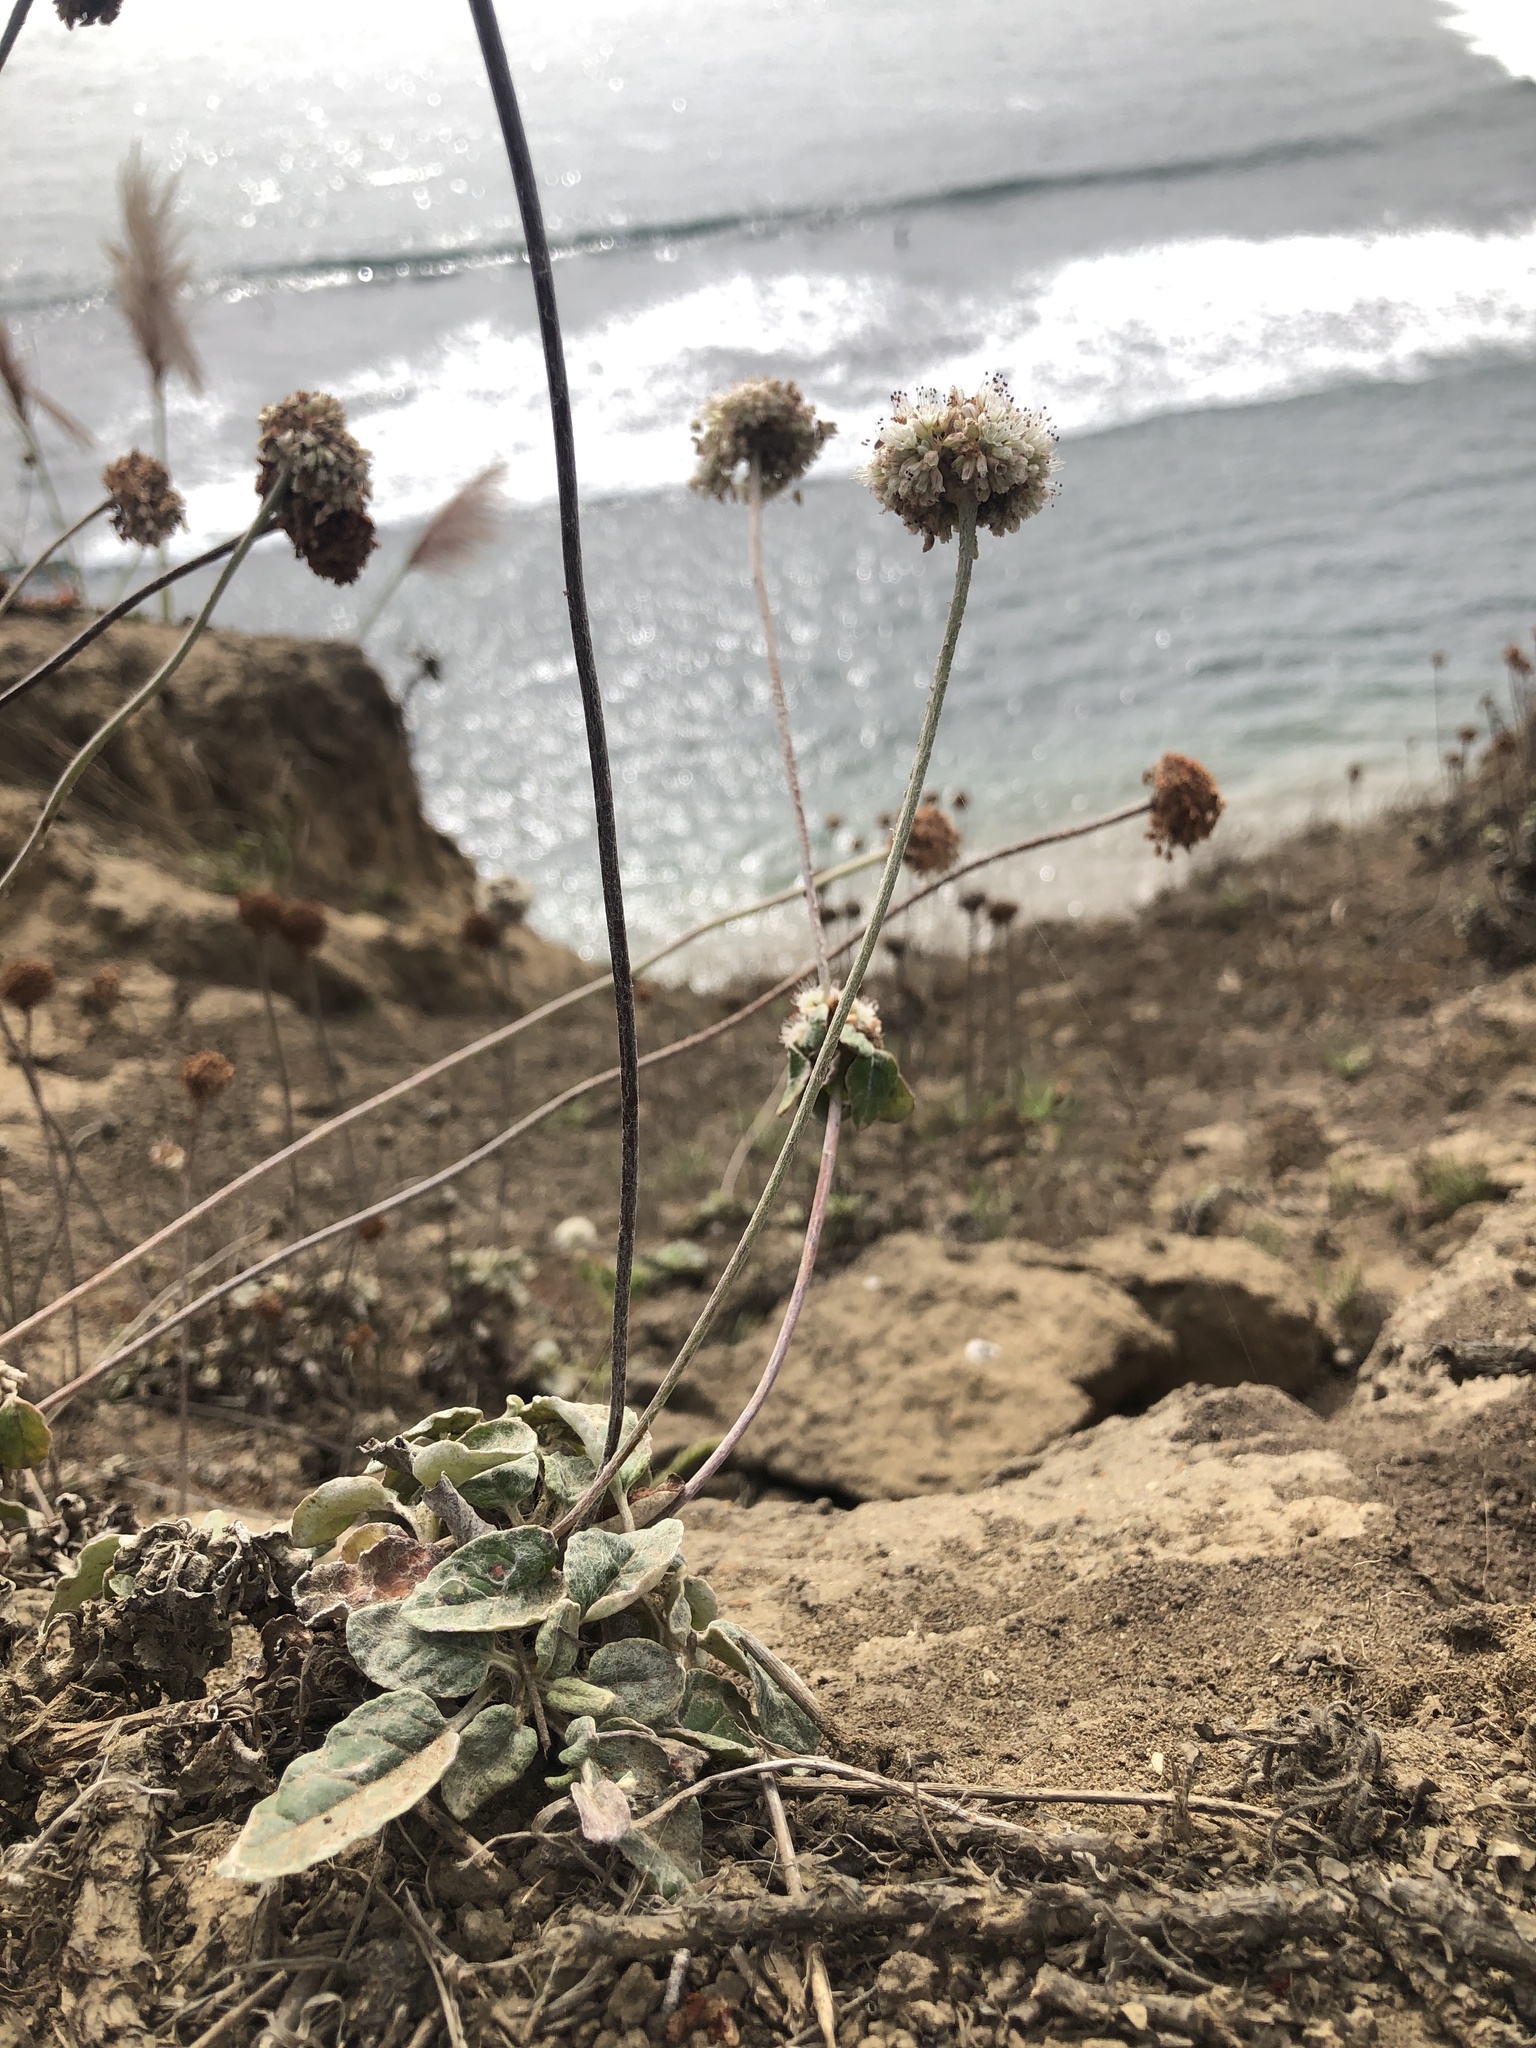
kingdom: Plantae
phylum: Tracheophyta
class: Magnoliopsida
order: Caryophyllales
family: Polygonaceae
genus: Eriogonum
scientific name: Eriogonum latifolium
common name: Seaside wild buckwheat
